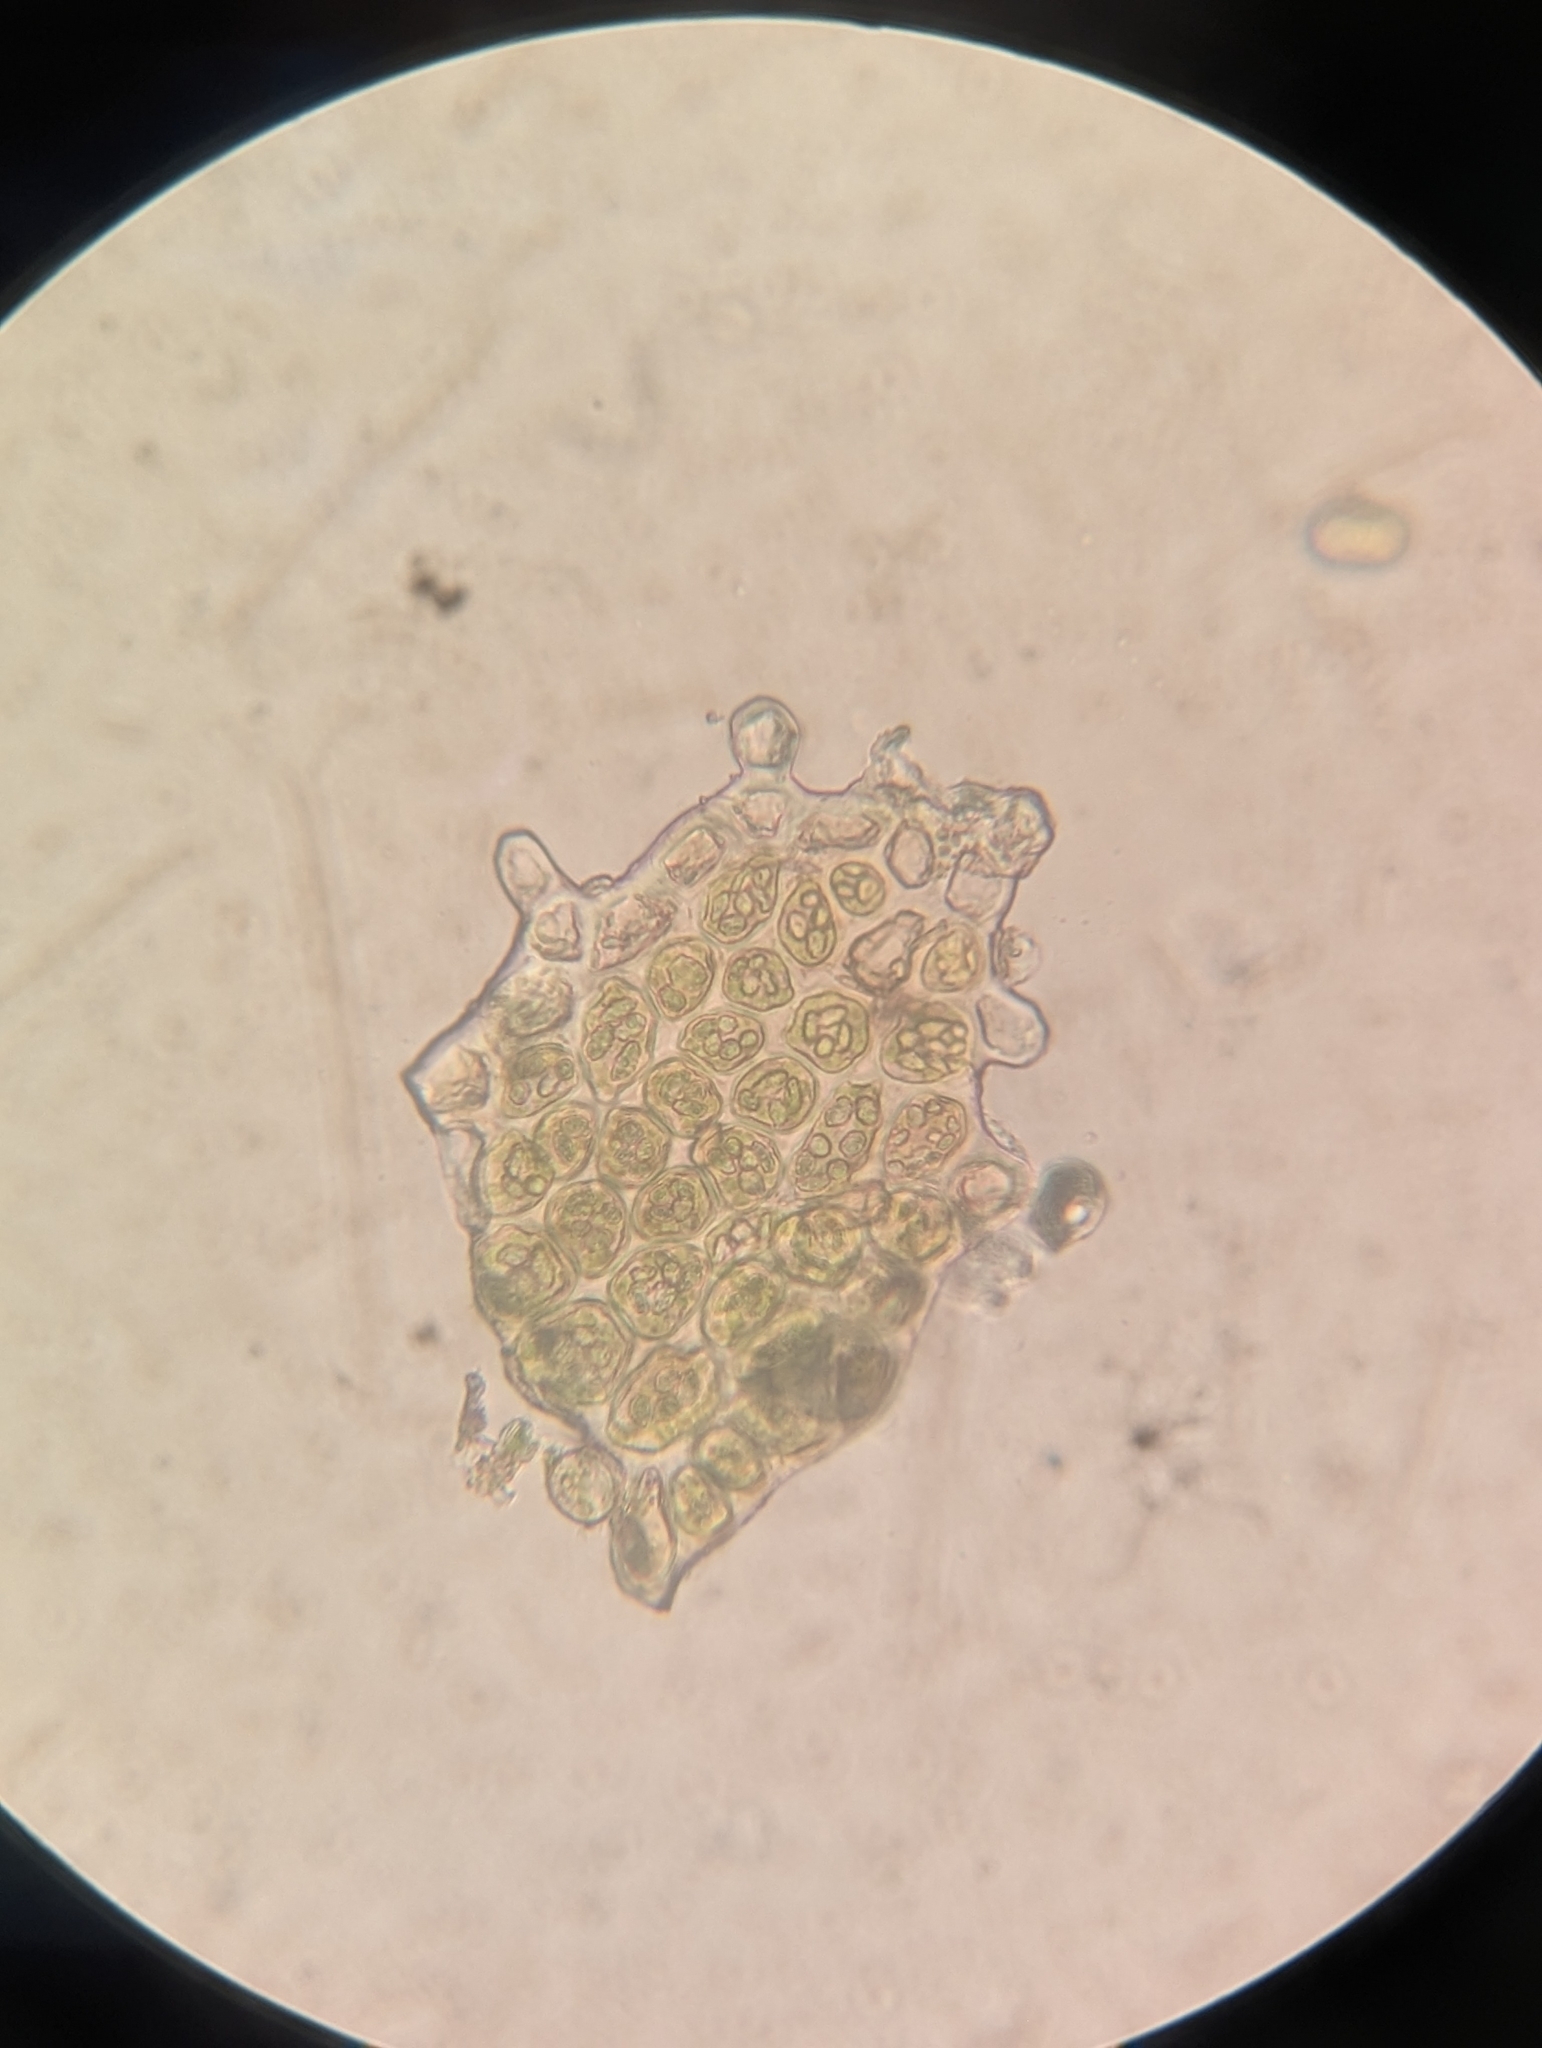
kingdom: Plantae
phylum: Marchantiophyta
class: Jungermanniopsida
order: Jungermanniales
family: Cephaloziaceae
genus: Odontoschisma
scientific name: Odontoschisma denudatum
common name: Matchstick flapwort
